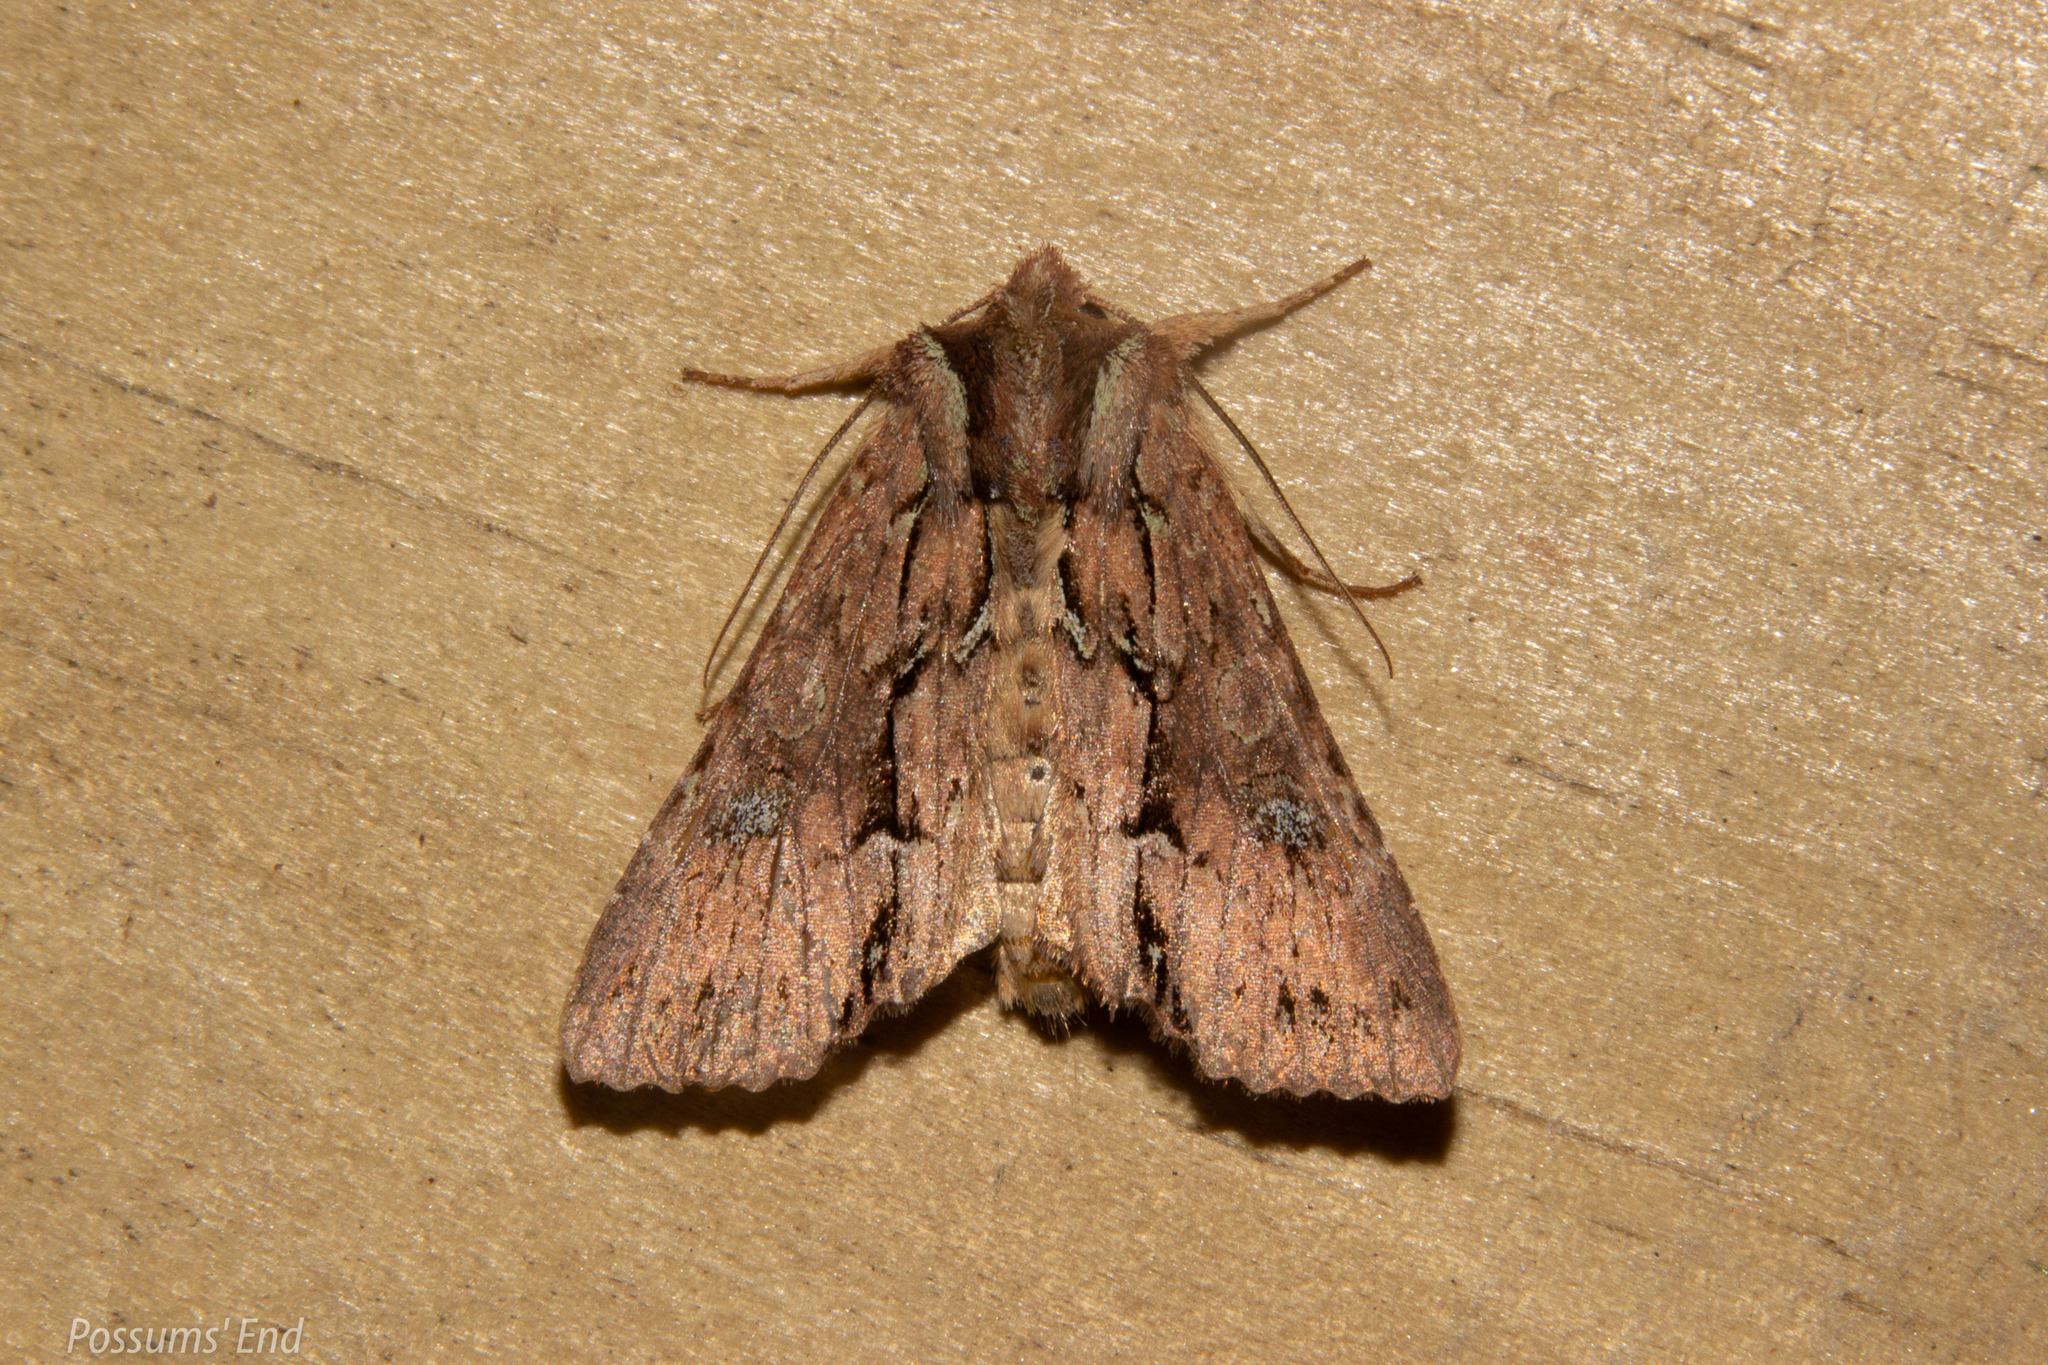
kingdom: Animalia
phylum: Arthropoda
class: Insecta
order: Lepidoptera
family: Noctuidae
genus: Meterana
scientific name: Meterana diatmeta
